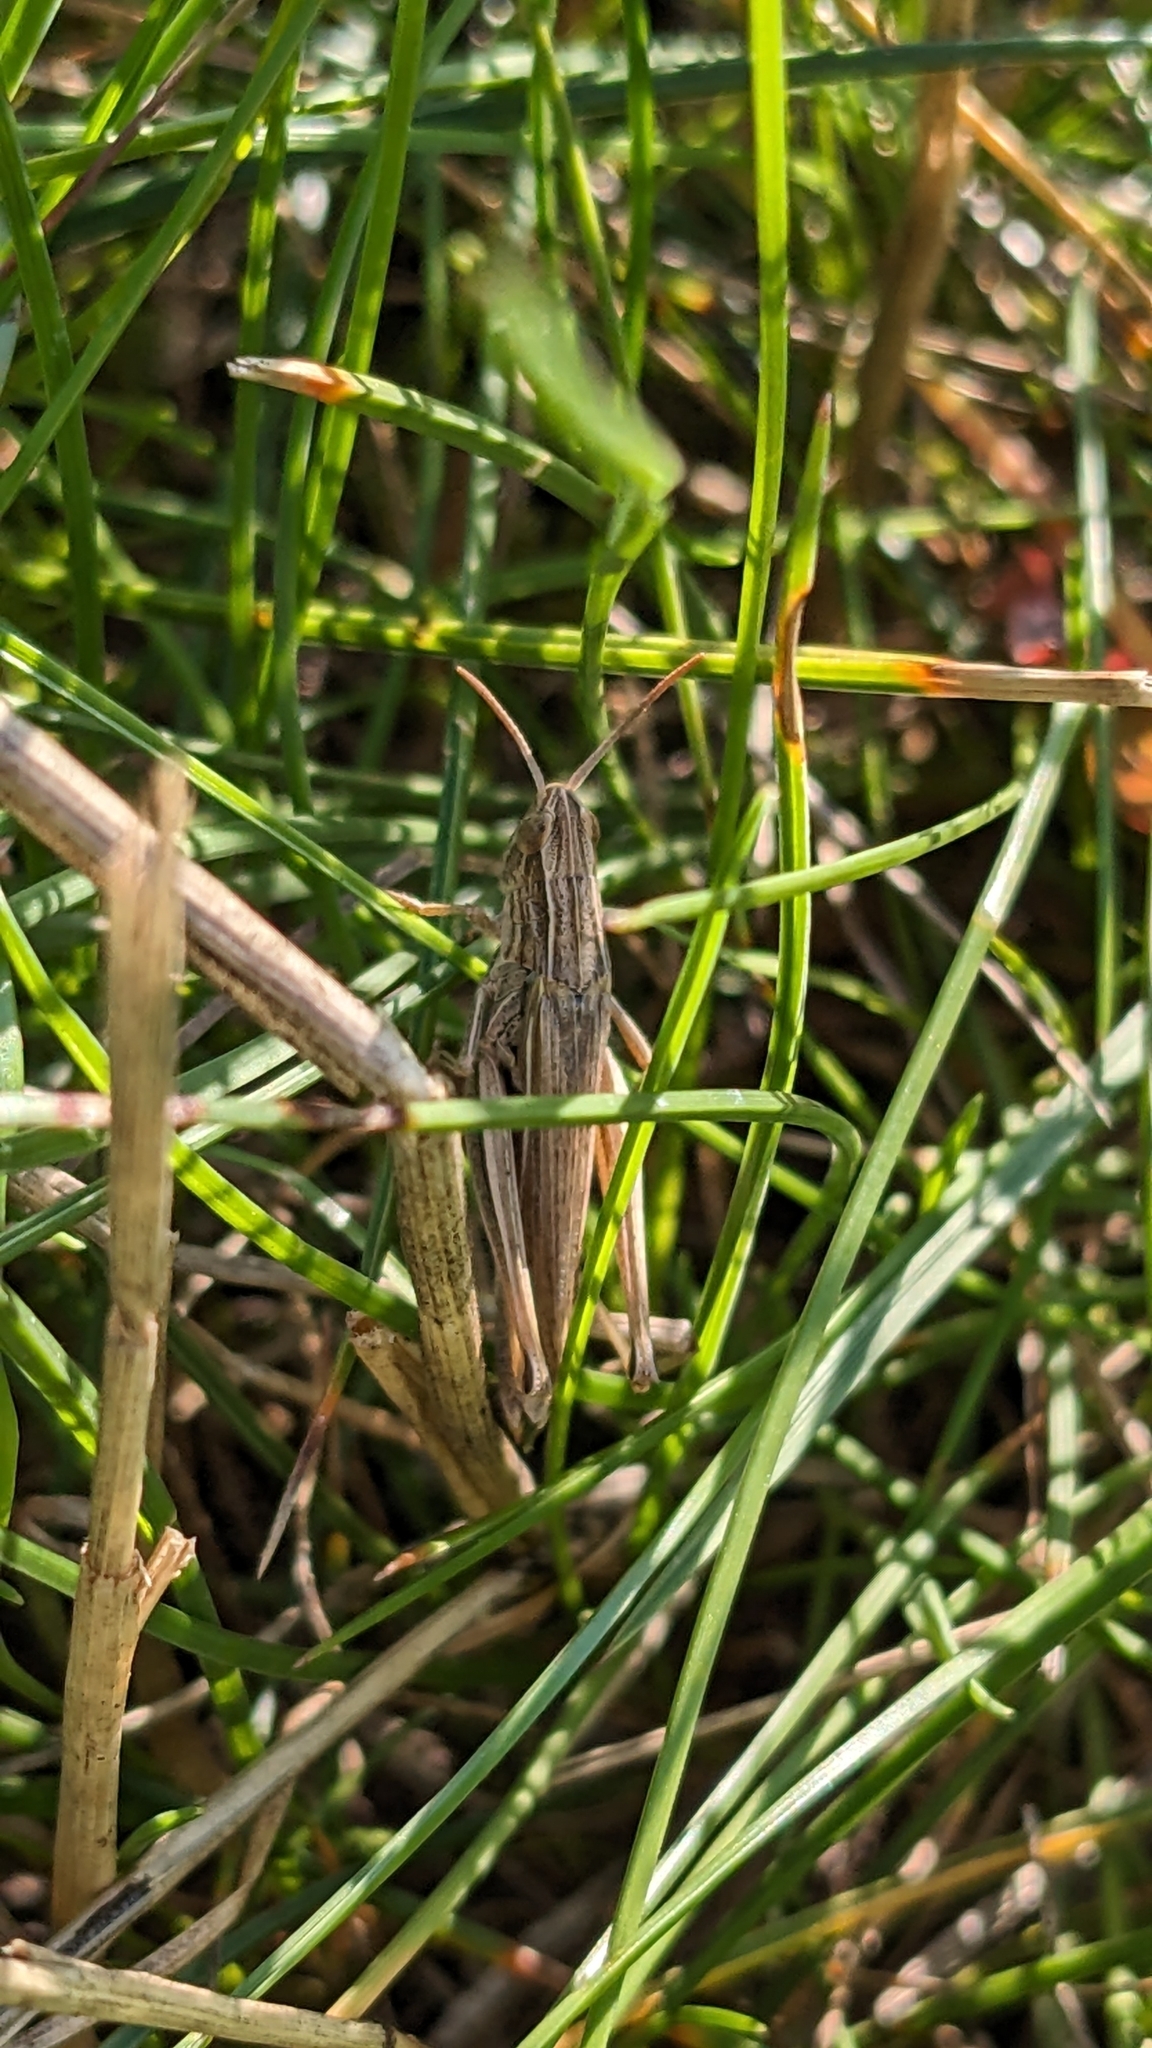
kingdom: Animalia
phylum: Arthropoda
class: Insecta
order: Orthoptera
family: Acrididae
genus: Chorthippus
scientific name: Chorthippus albomarginatus
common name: Lesser marsh grasshopper
